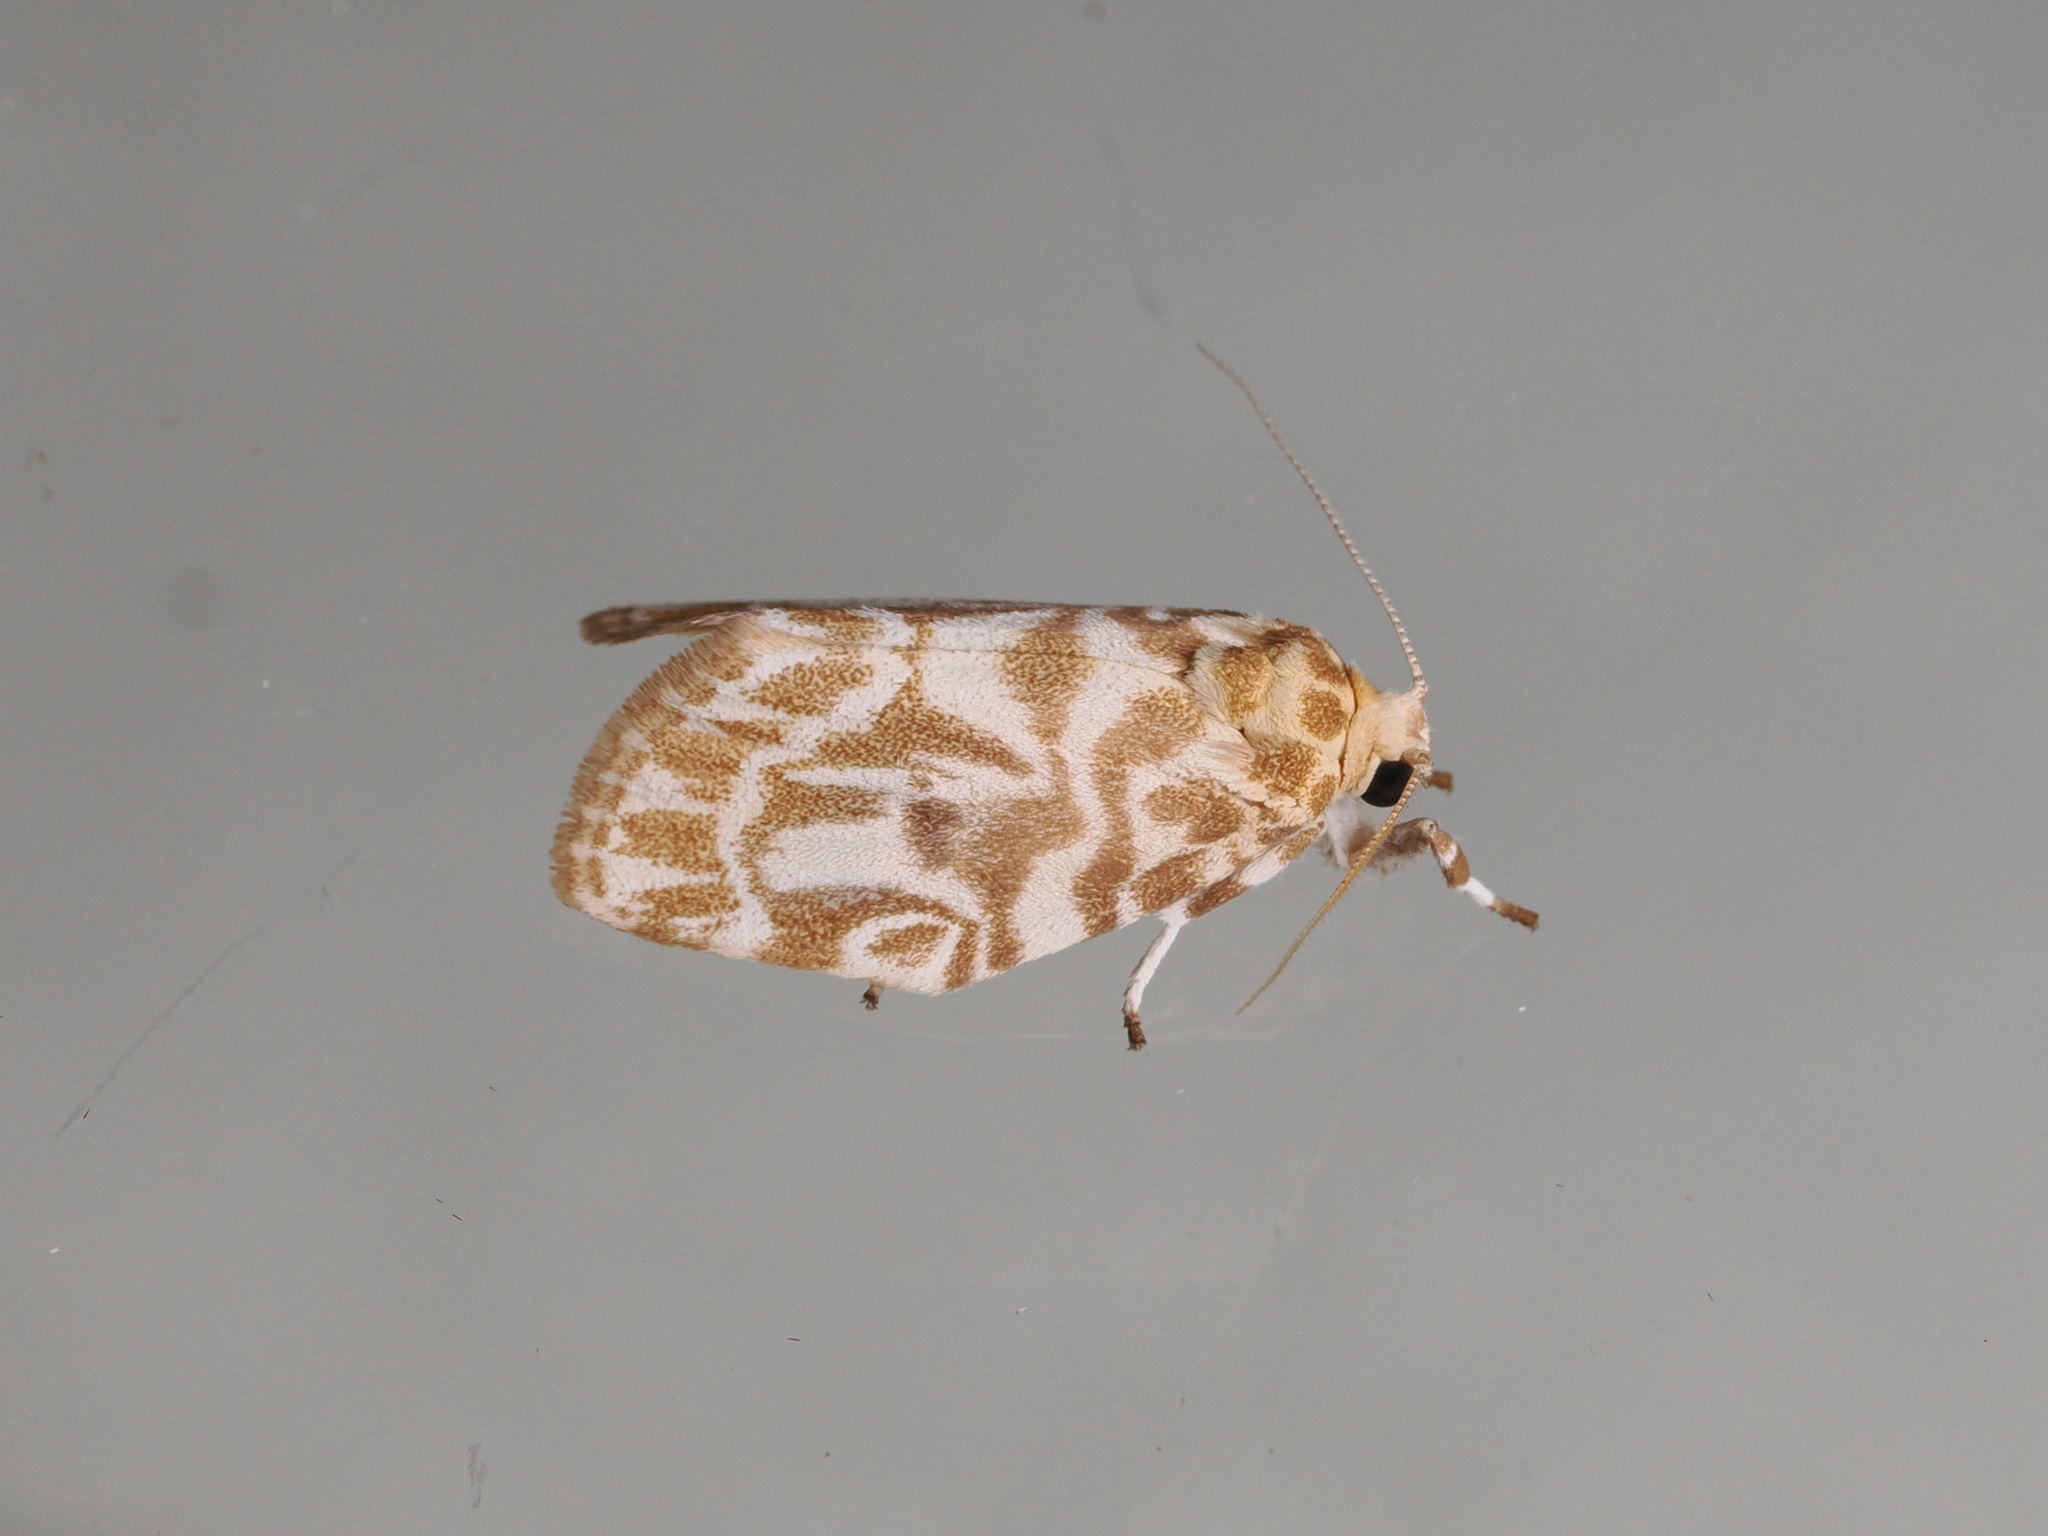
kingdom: Animalia
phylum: Arthropoda
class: Insecta
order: Lepidoptera
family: Erebidae
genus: Cabarda
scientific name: Cabarda sequens
